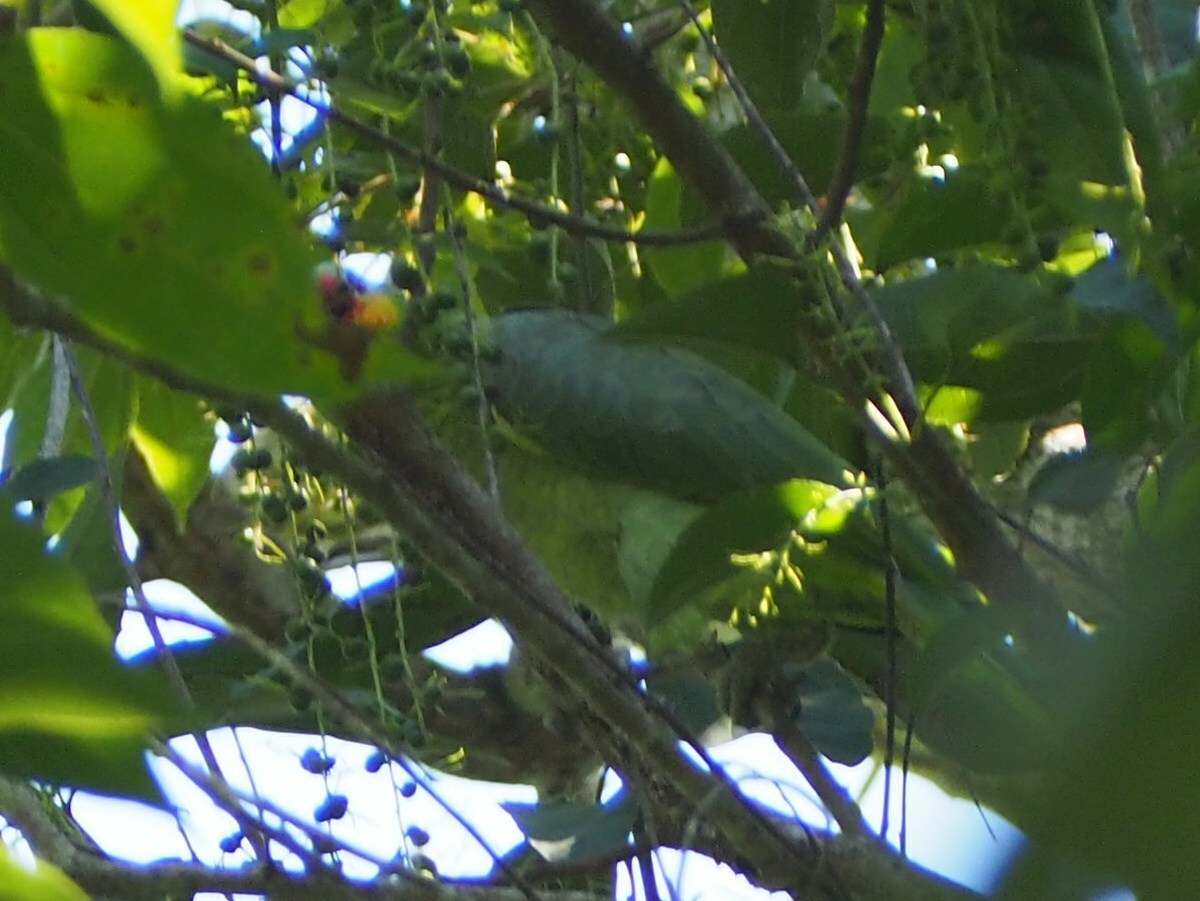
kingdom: Animalia
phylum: Chordata
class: Aves
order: Psittaciformes
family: Psittacidae
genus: Amazona
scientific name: Amazona autumnalis
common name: Red-lored amazon
